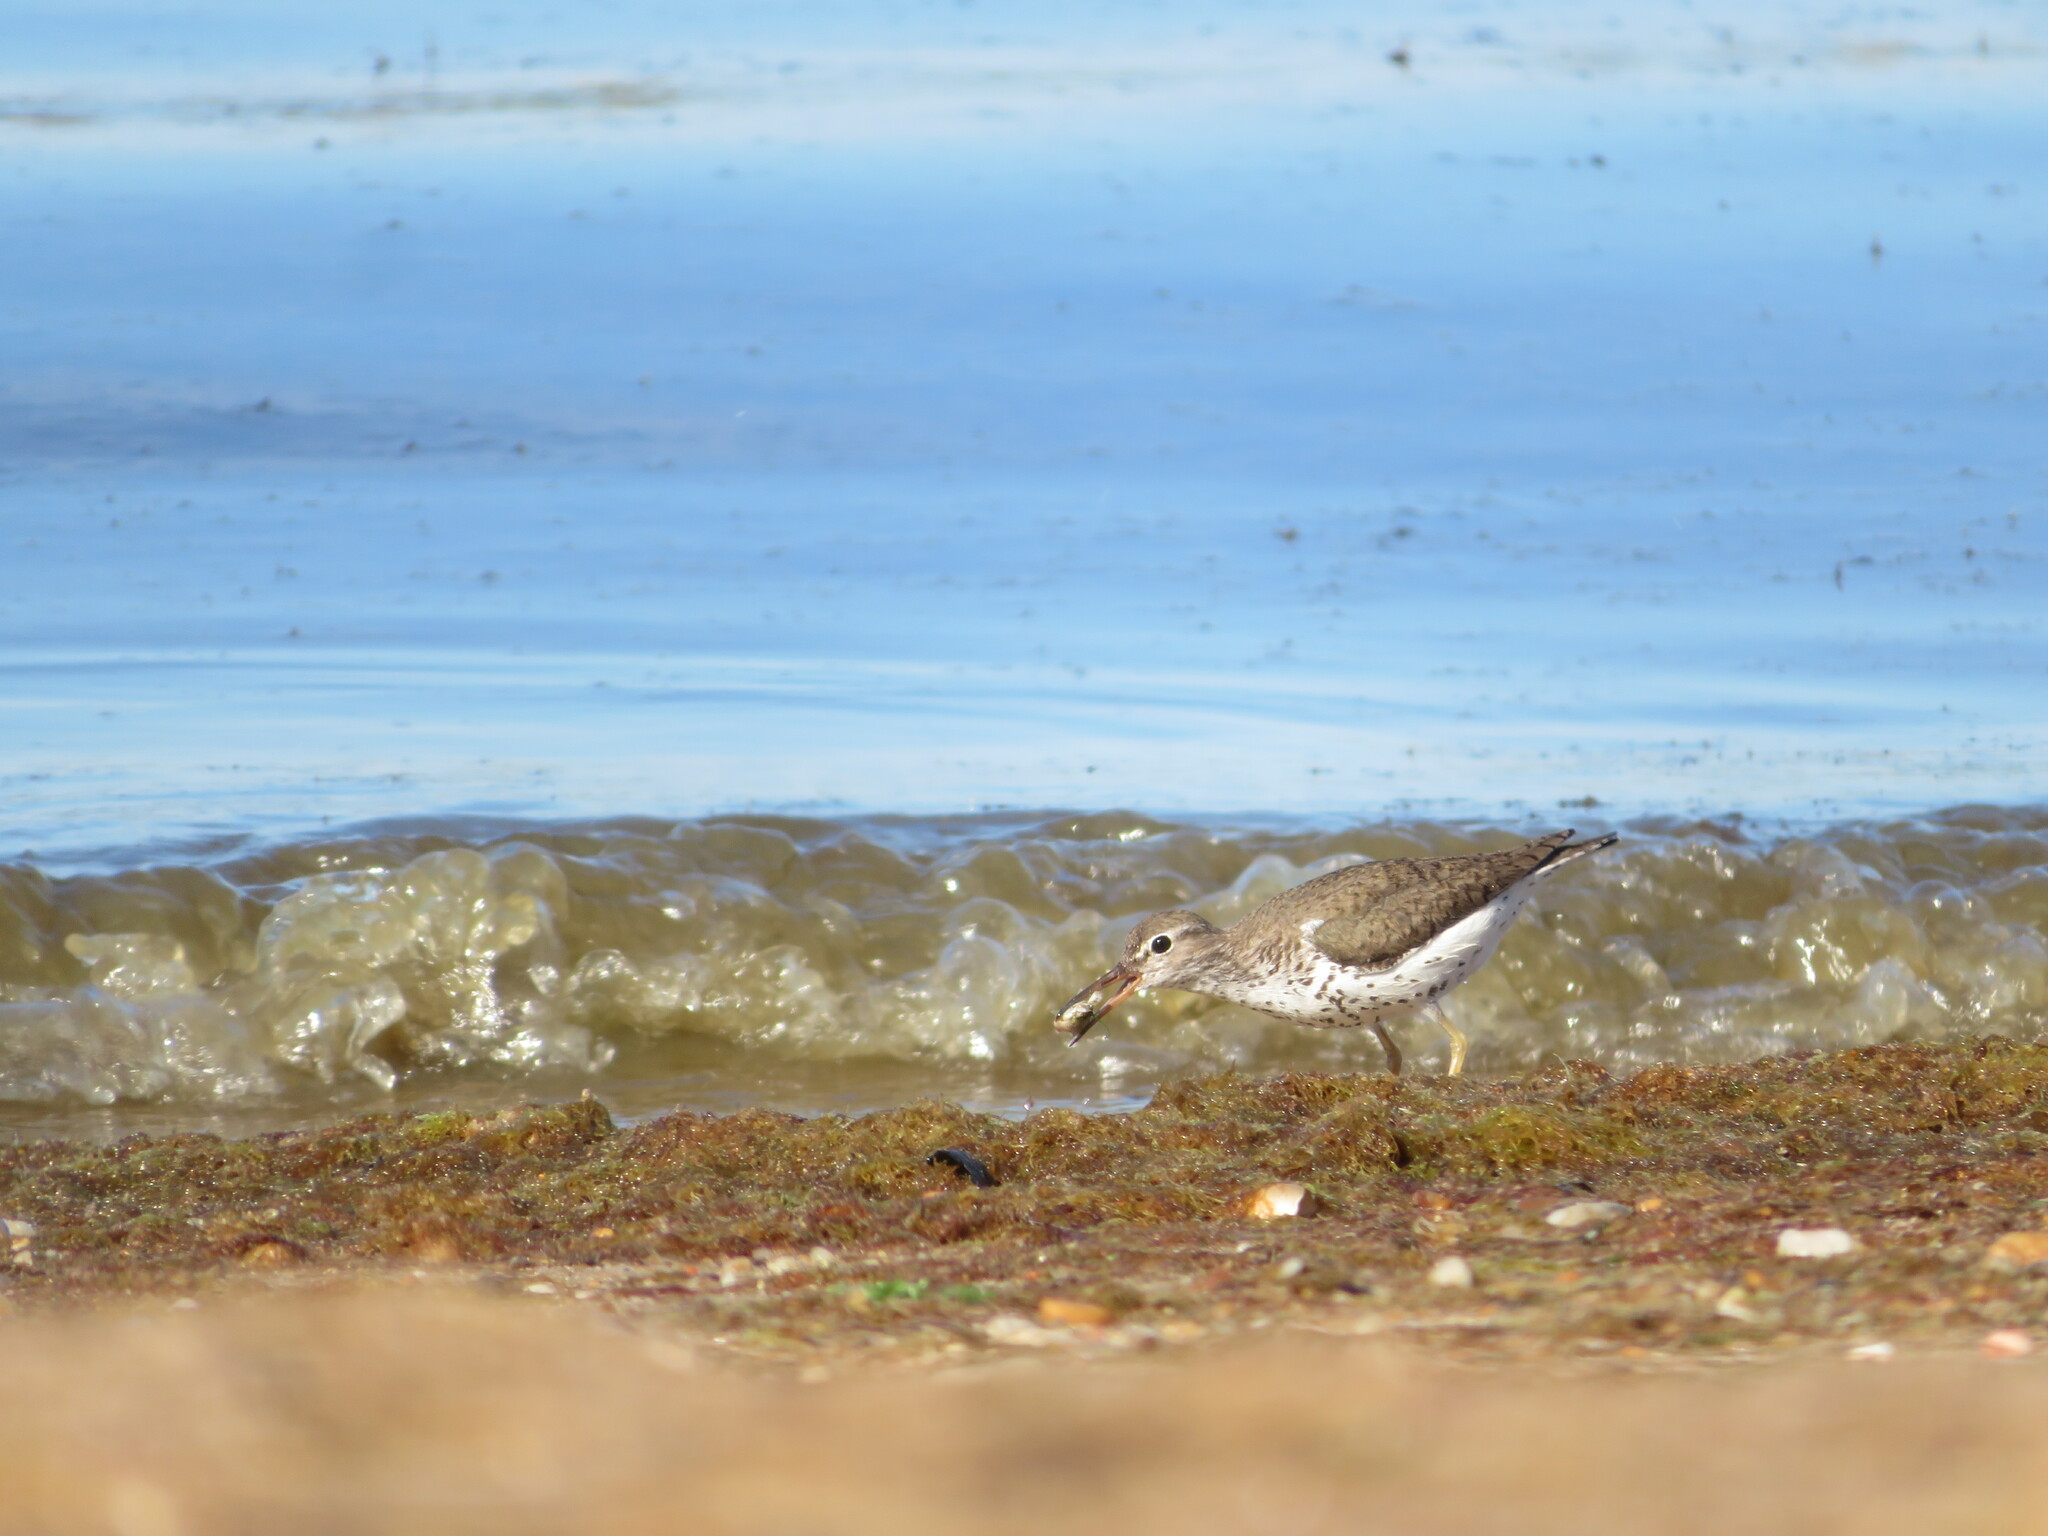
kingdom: Animalia
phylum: Chordata
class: Aves
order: Charadriiformes
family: Scolopacidae
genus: Actitis
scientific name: Actitis macularius
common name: Spotted sandpiper
